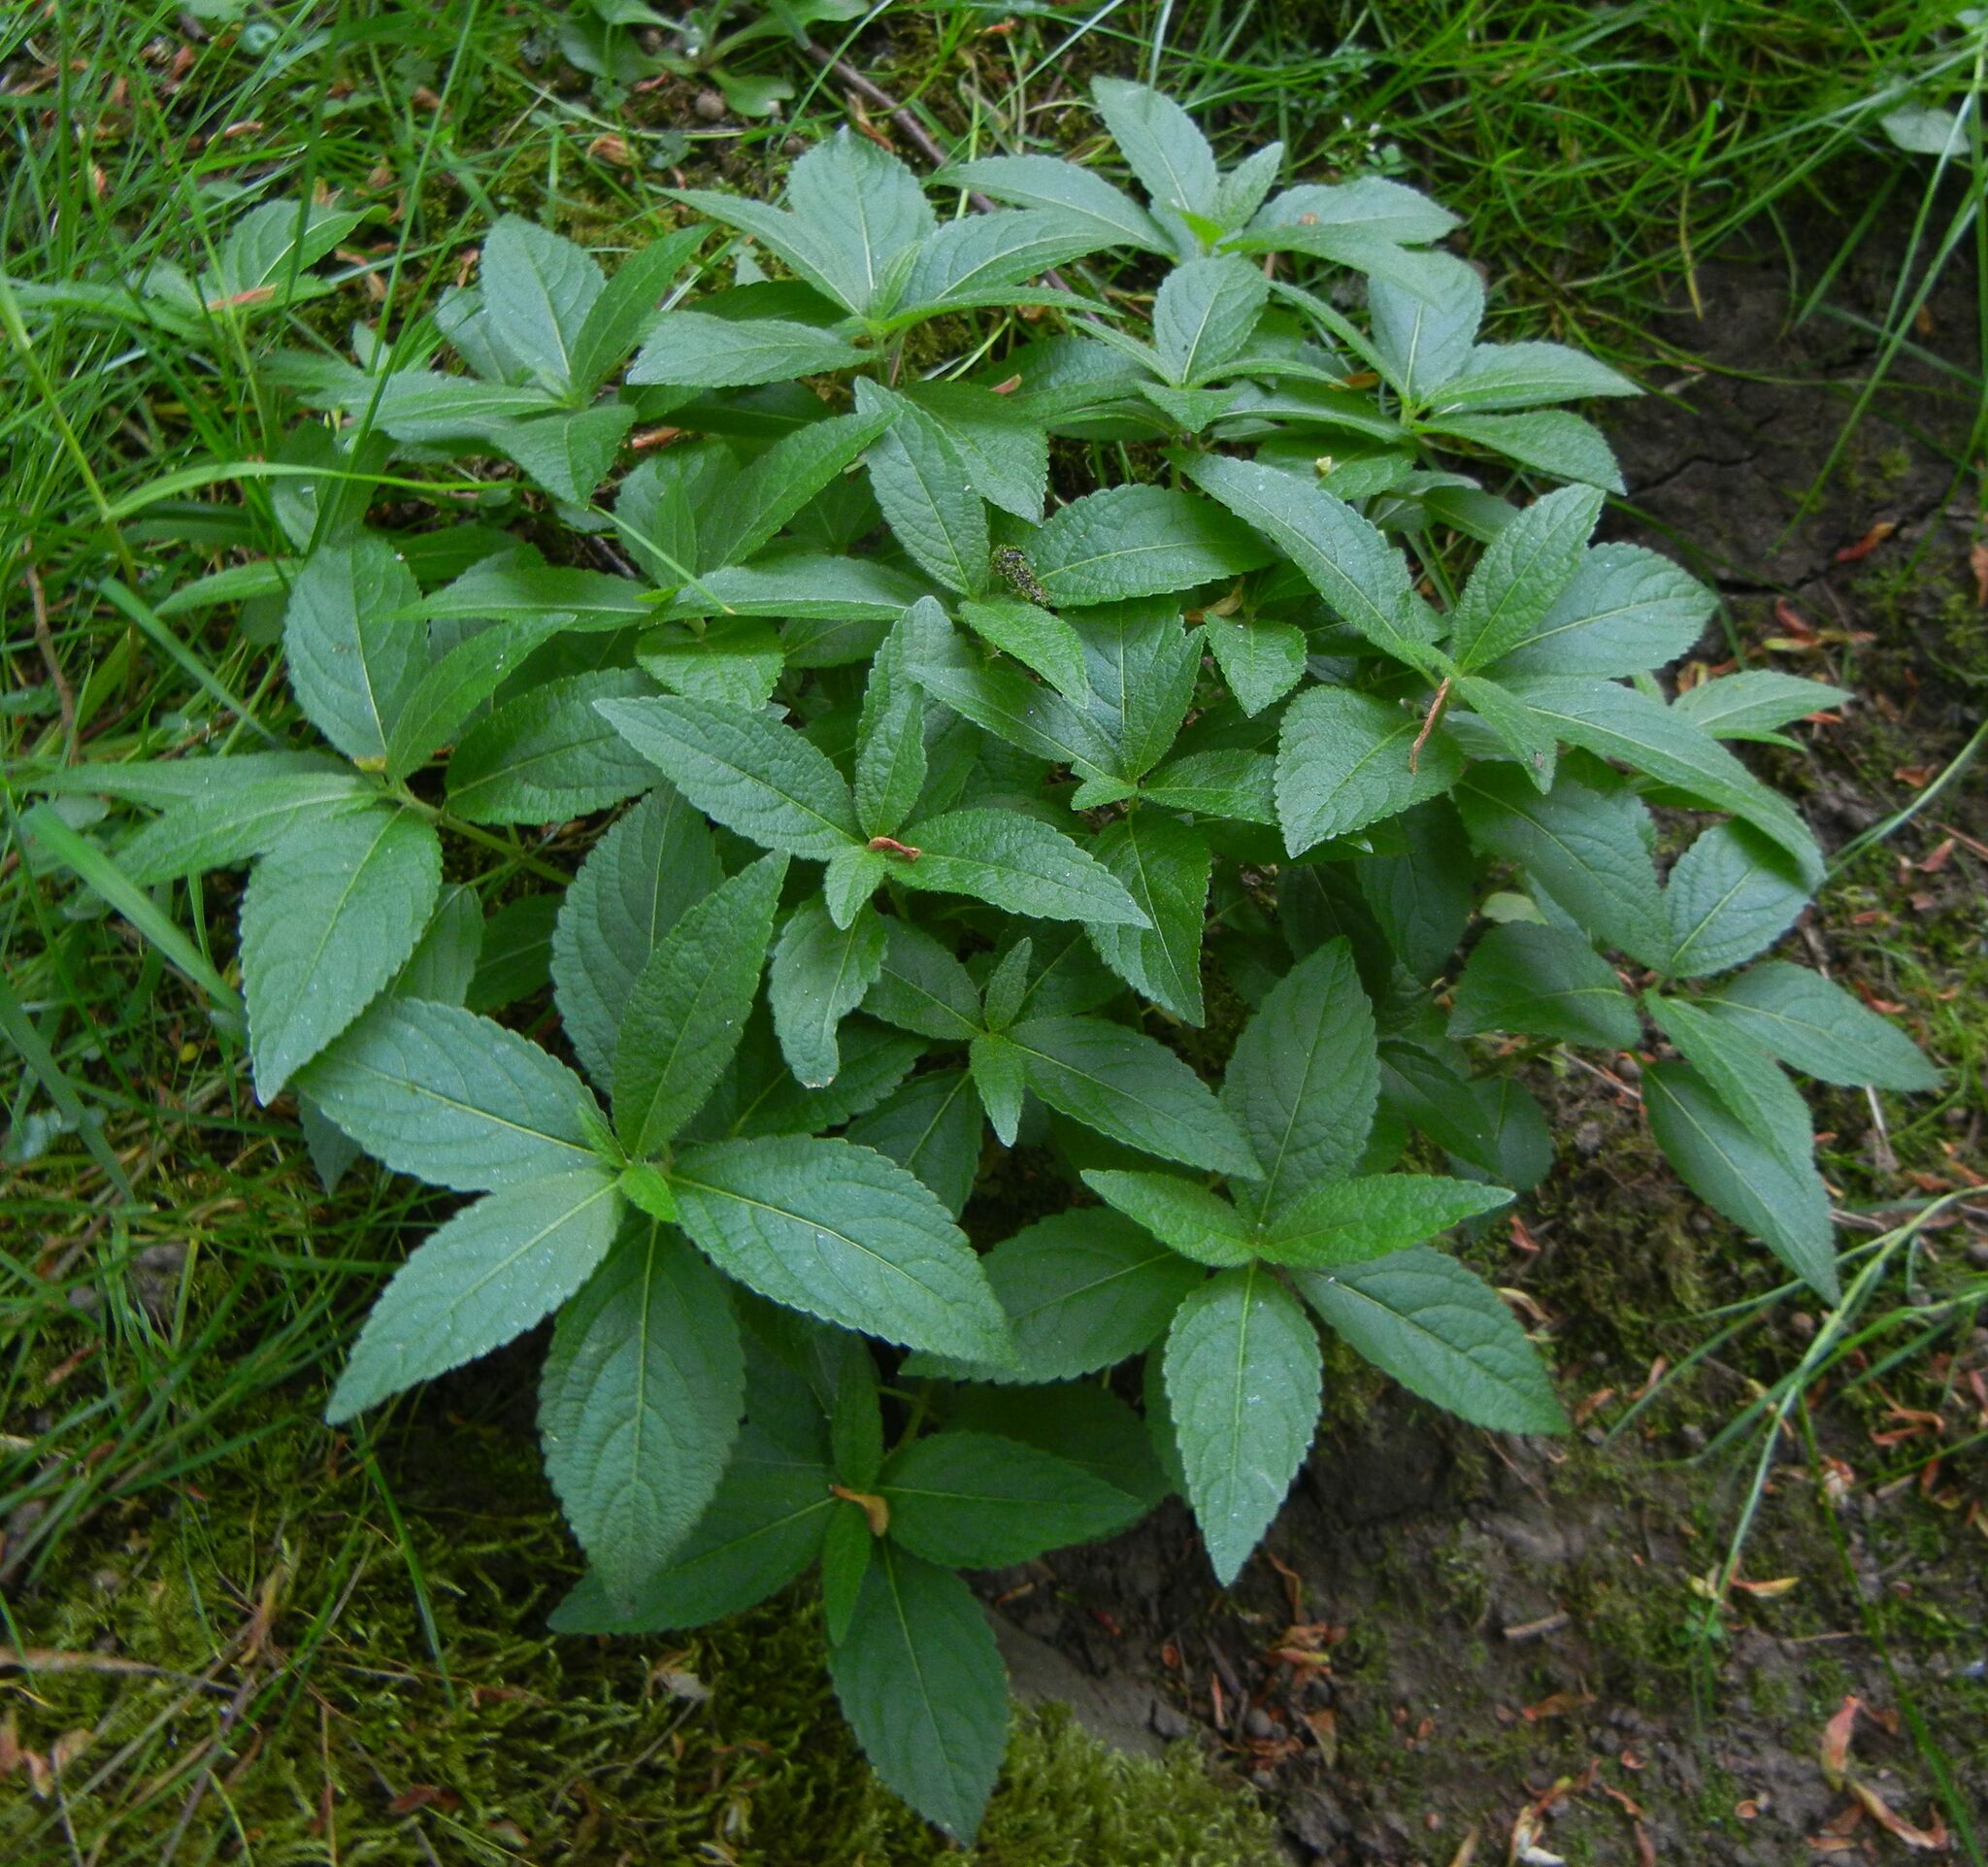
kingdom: Plantae
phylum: Tracheophyta
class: Magnoliopsida
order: Malpighiales
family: Euphorbiaceae
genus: Mercurialis
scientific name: Mercurialis perennis
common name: Dog mercury
